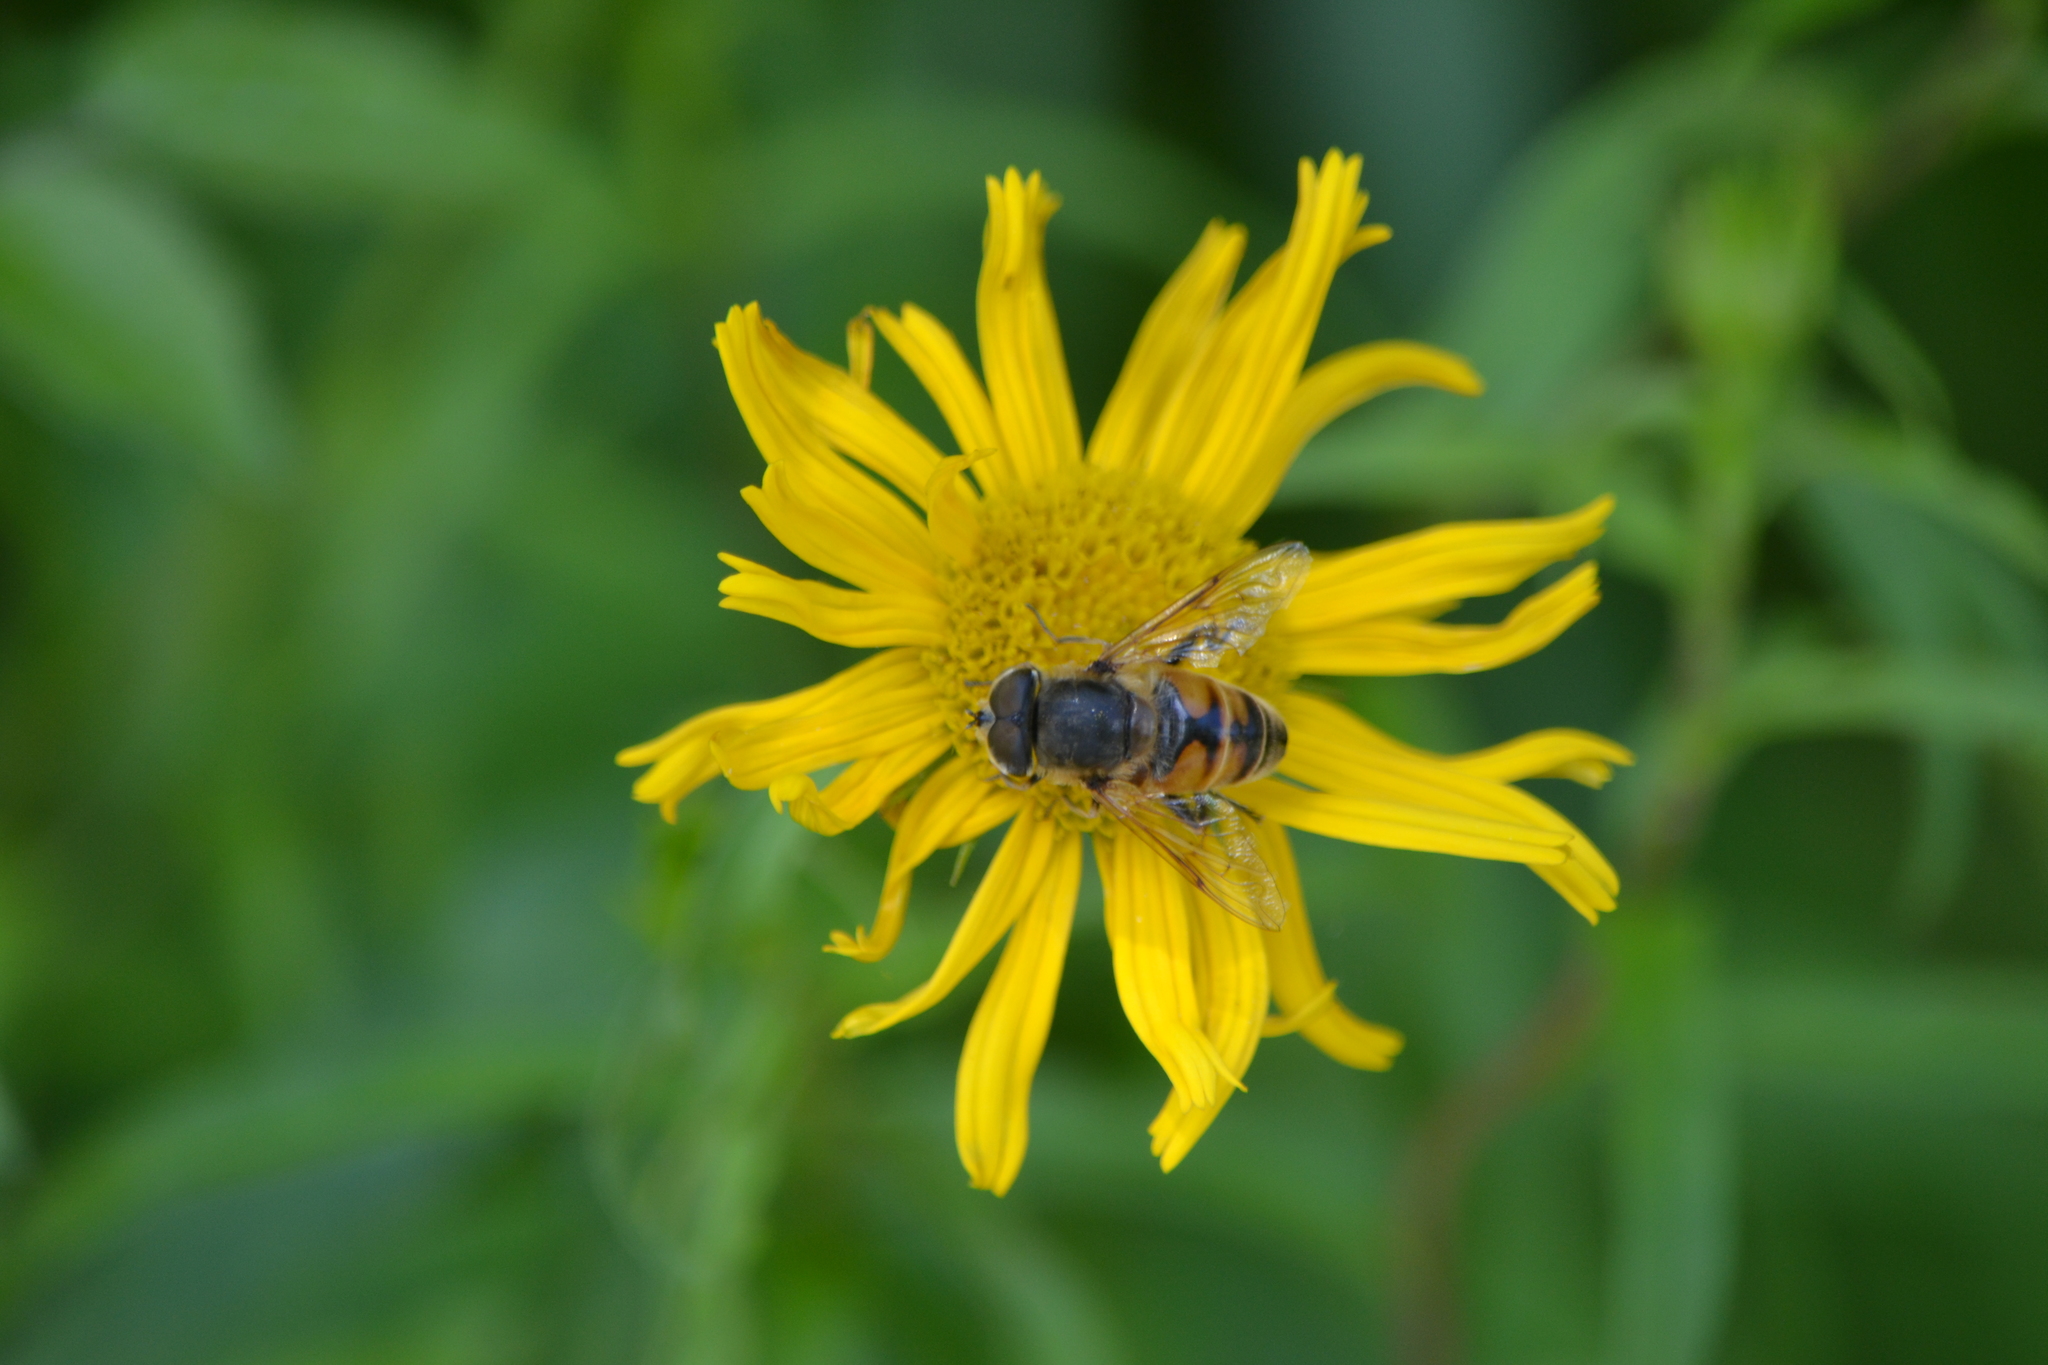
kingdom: Animalia
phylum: Arthropoda
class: Insecta
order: Diptera
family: Syrphidae
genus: Eristalis
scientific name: Eristalis tenax
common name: Drone fly
